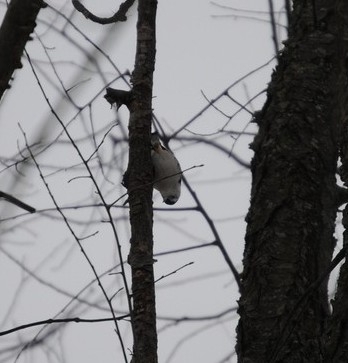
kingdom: Animalia
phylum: Chordata
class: Aves
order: Passeriformes
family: Sittidae
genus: Sitta
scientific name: Sitta carolinensis
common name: White-breasted nuthatch
